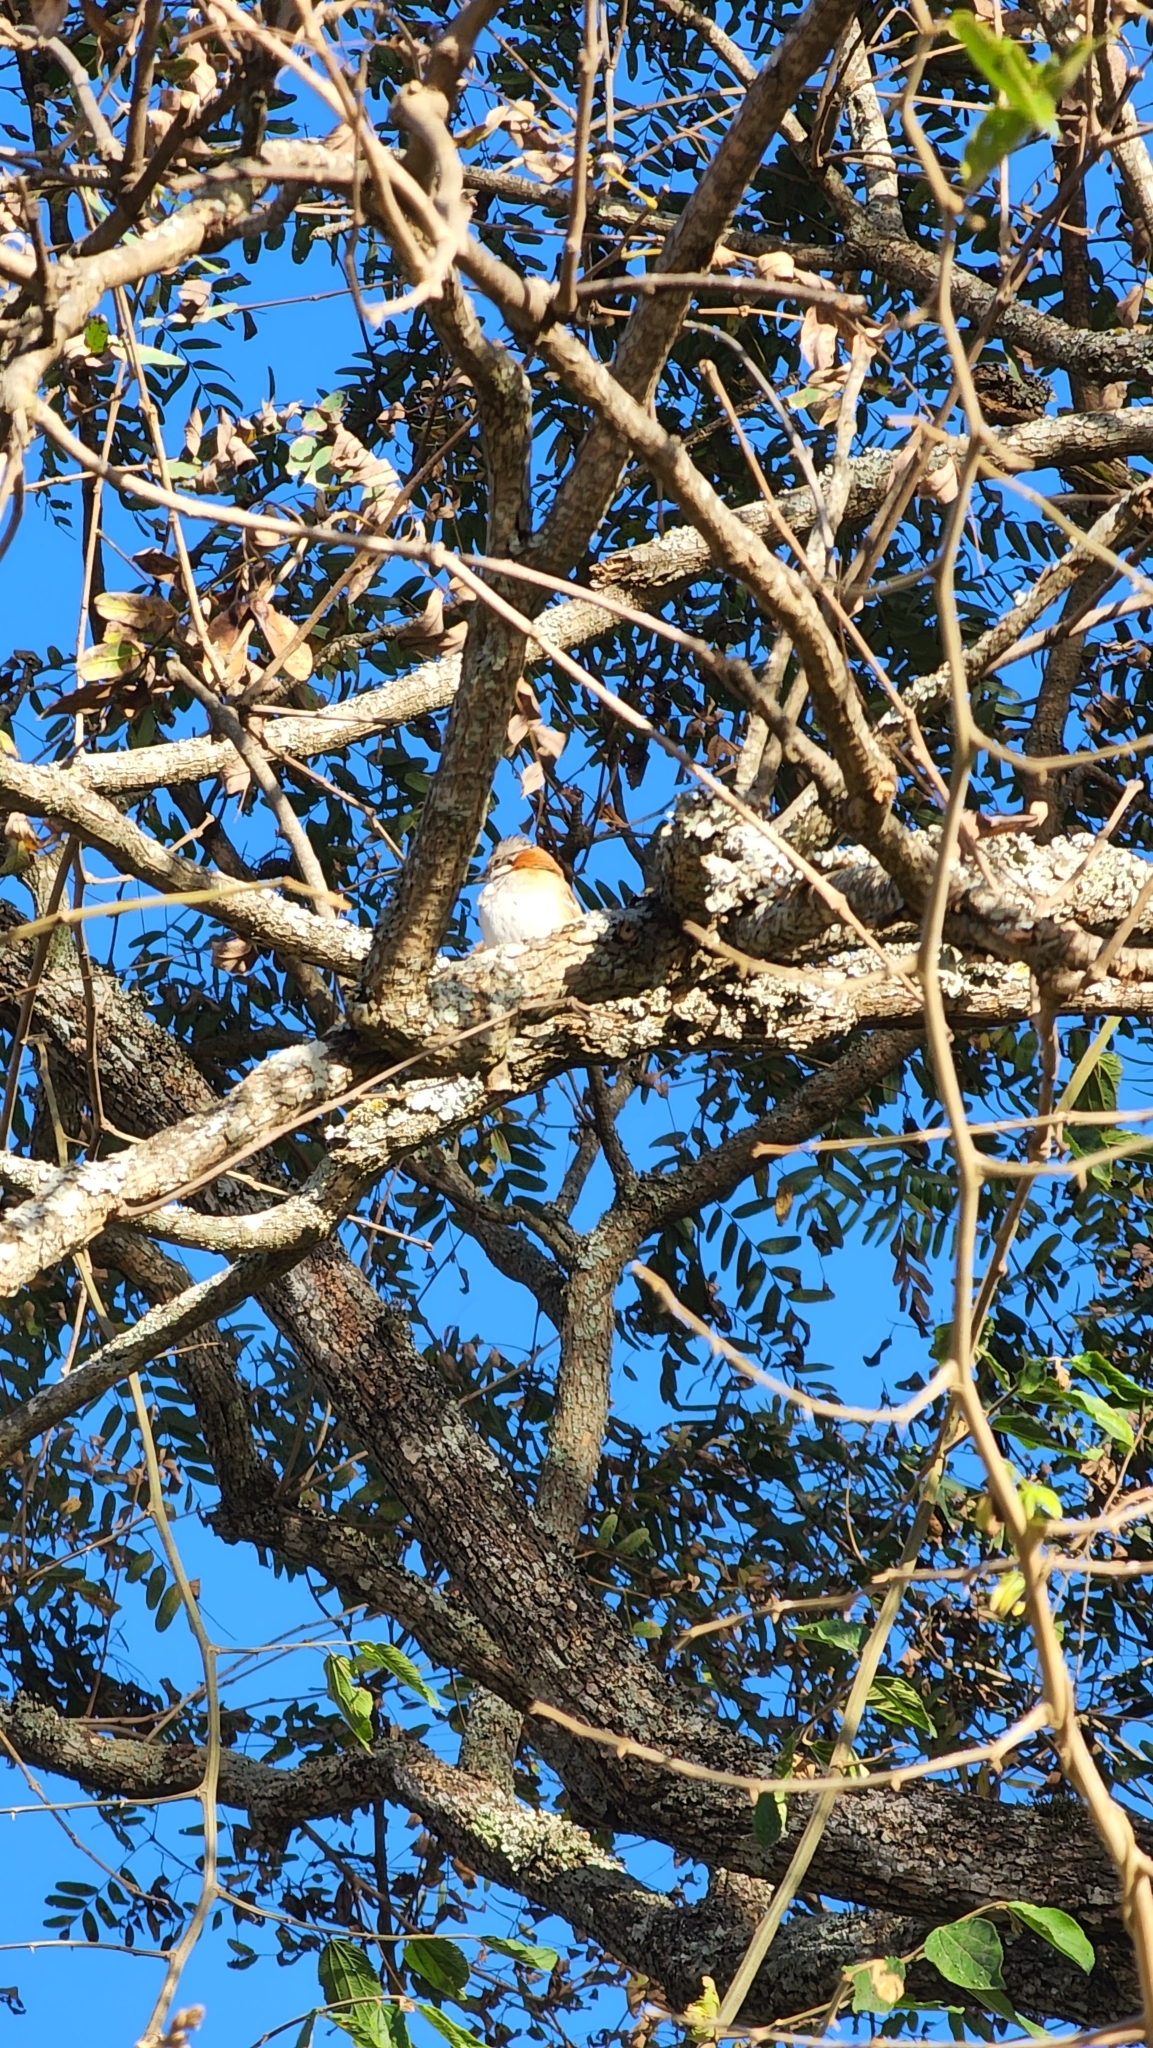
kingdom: Animalia
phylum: Chordata
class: Aves
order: Passeriformes
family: Passerellidae
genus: Zonotrichia
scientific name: Zonotrichia capensis
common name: Rufous-collared sparrow
